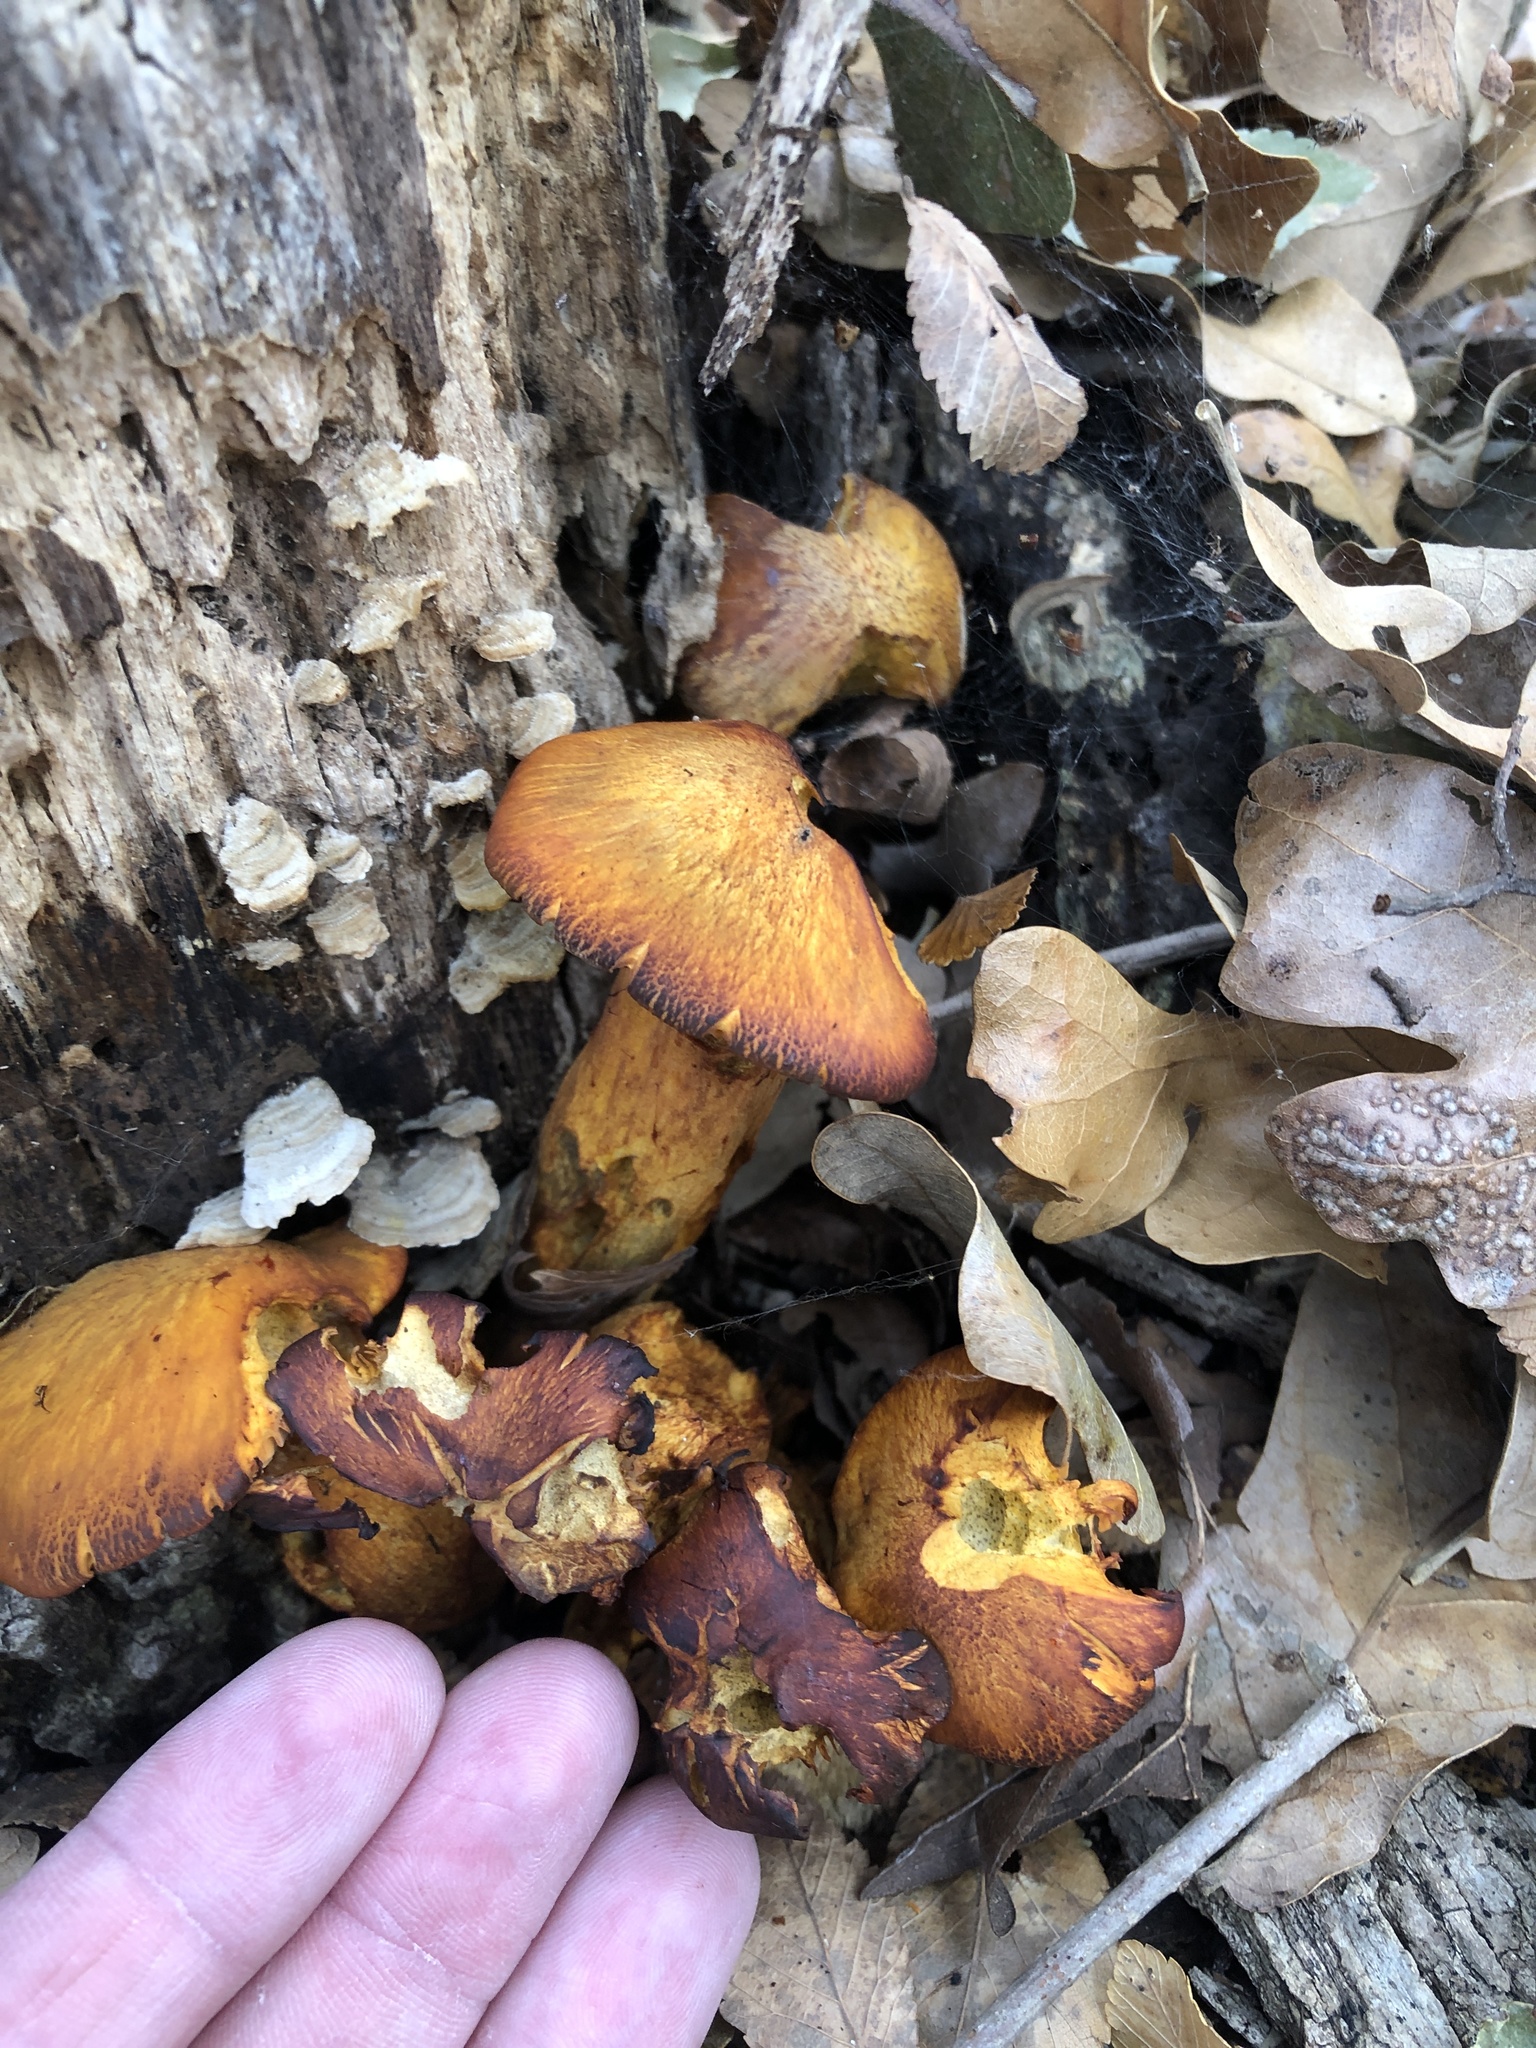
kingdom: Fungi
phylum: Basidiomycota
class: Agaricomycetes
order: Agaricales
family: Omphalotaceae
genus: Omphalotus
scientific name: Omphalotus subilludens
